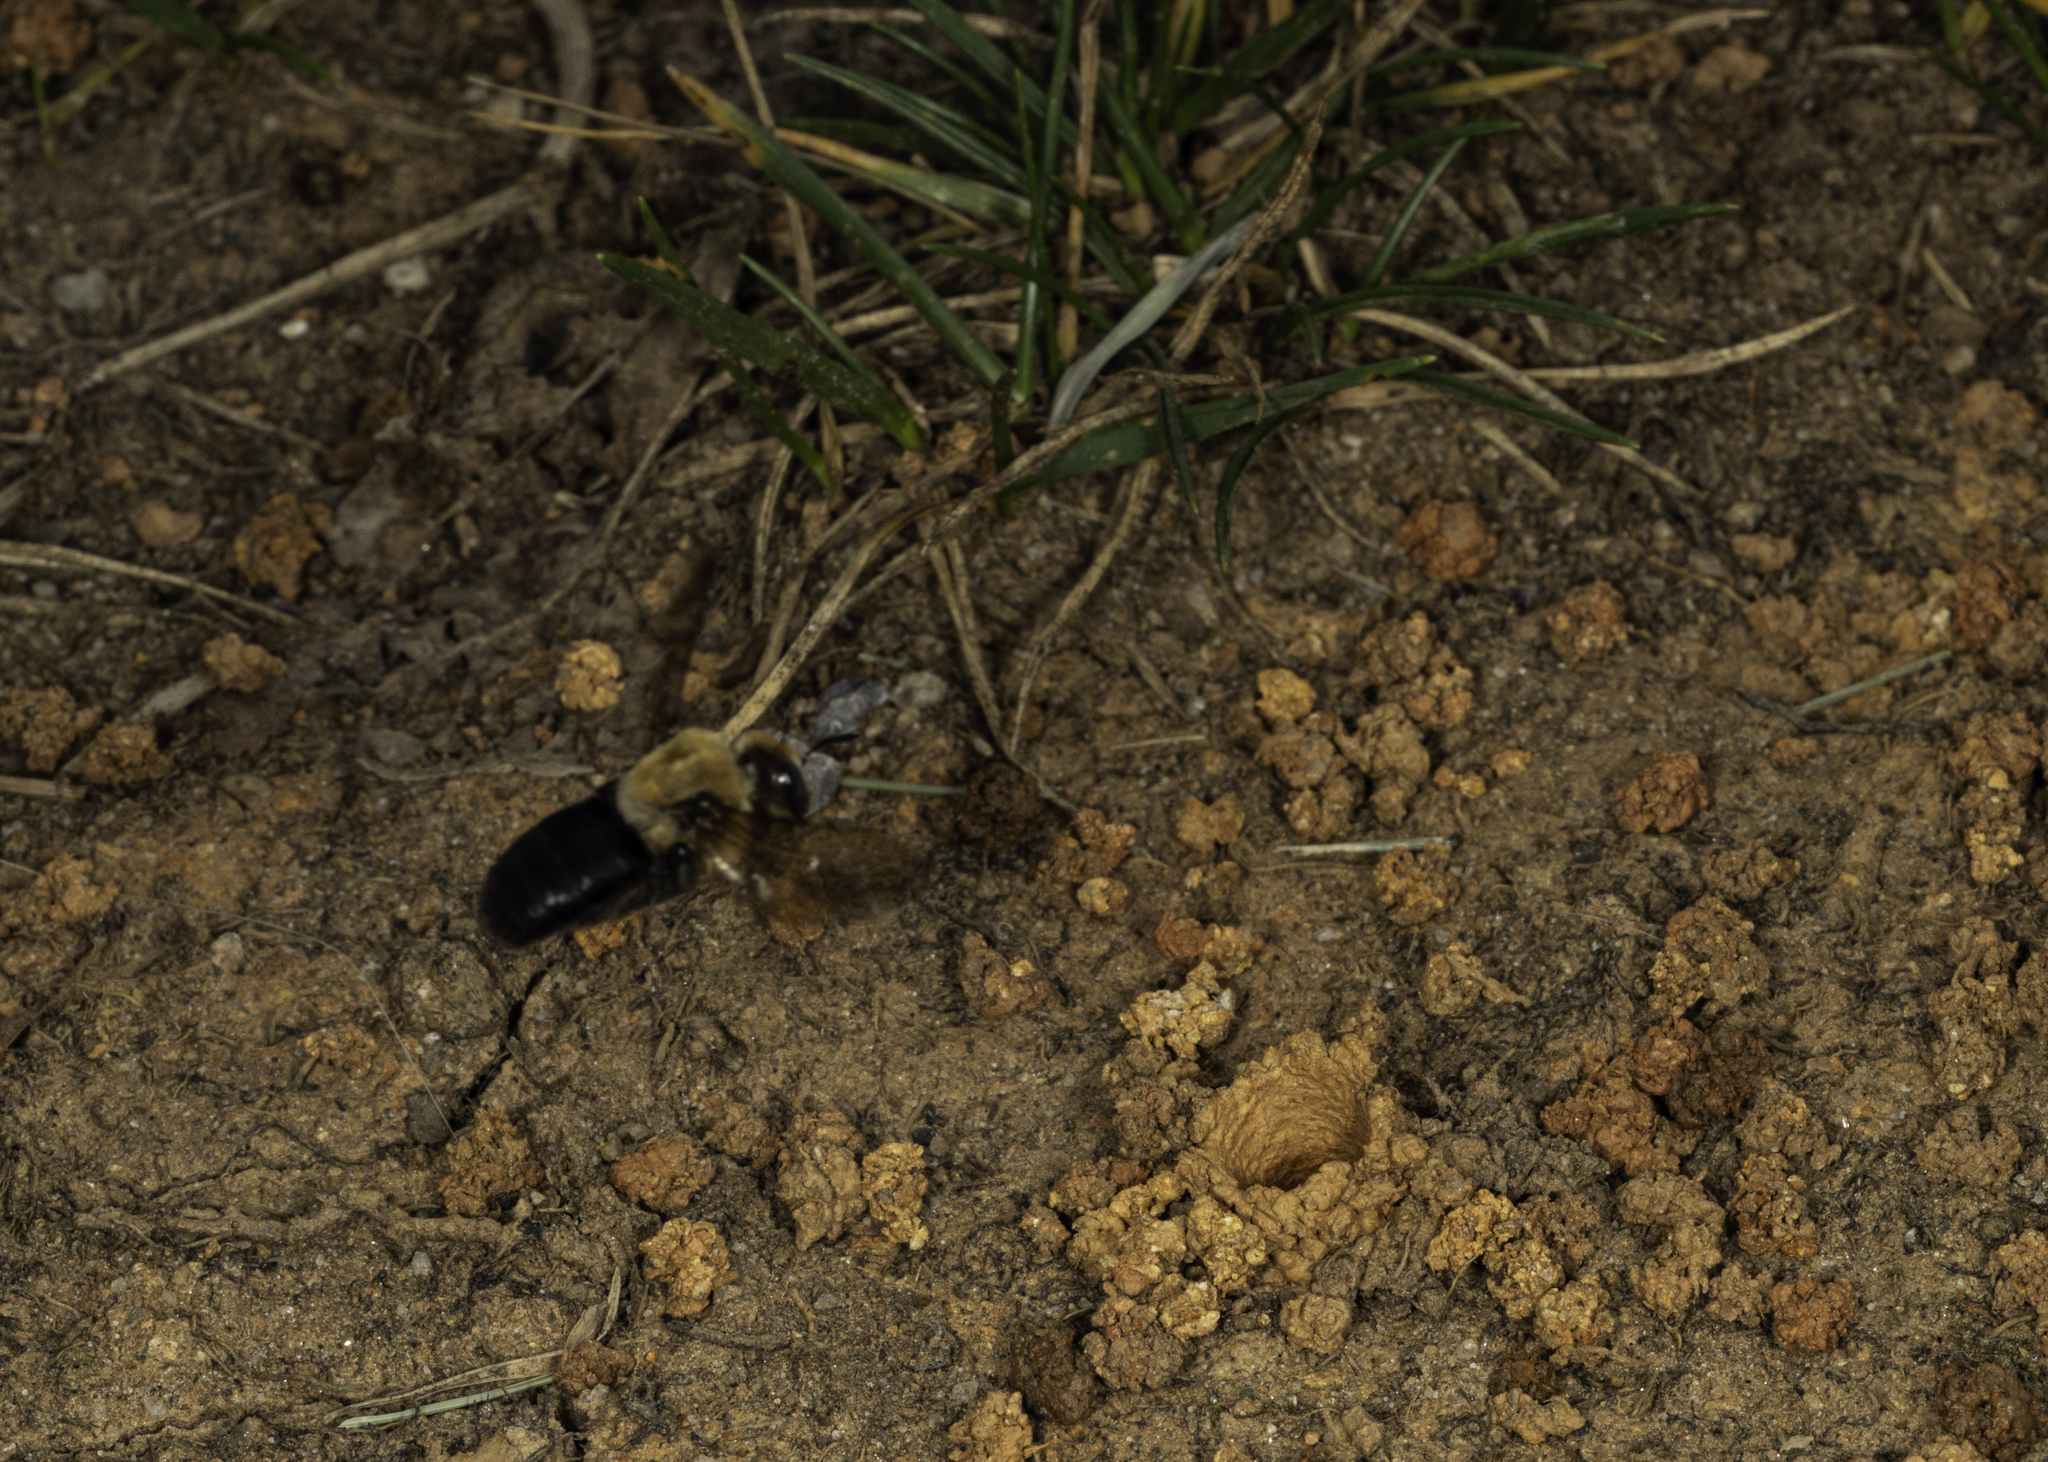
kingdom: Animalia
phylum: Arthropoda
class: Insecta
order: Hymenoptera
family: Apidae
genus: Ptilothrix
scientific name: Ptilothrix bombiformis
